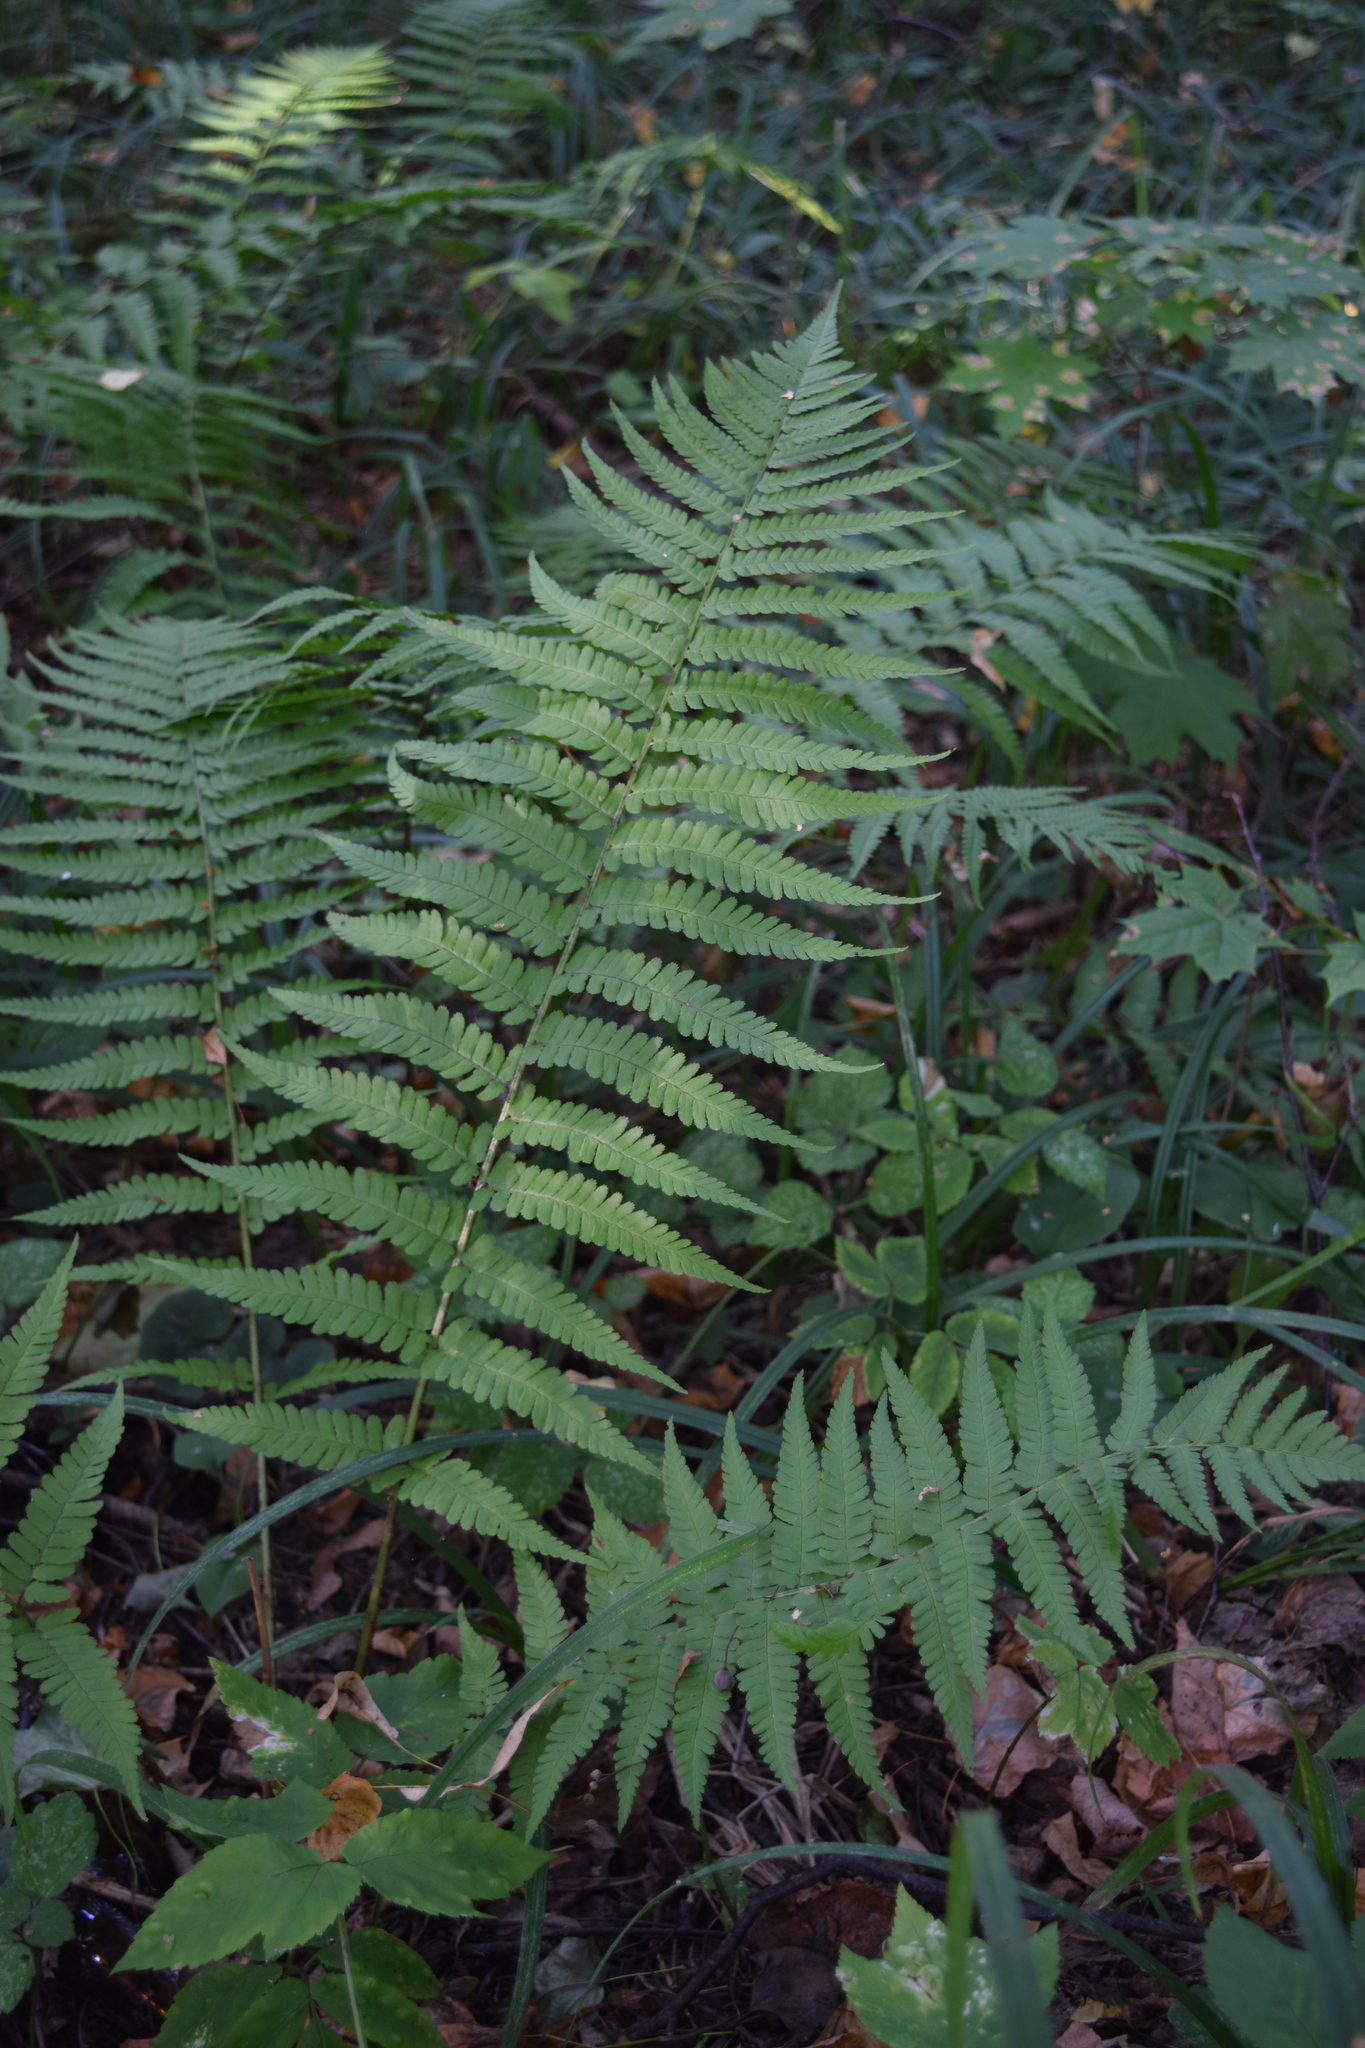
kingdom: Plantae
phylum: Tracheophyta
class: Polypodiopsida
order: Polypodiales
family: Dryopteridaceae
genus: Dryopteris
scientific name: Dryopteris filix-mas
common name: Male fern
